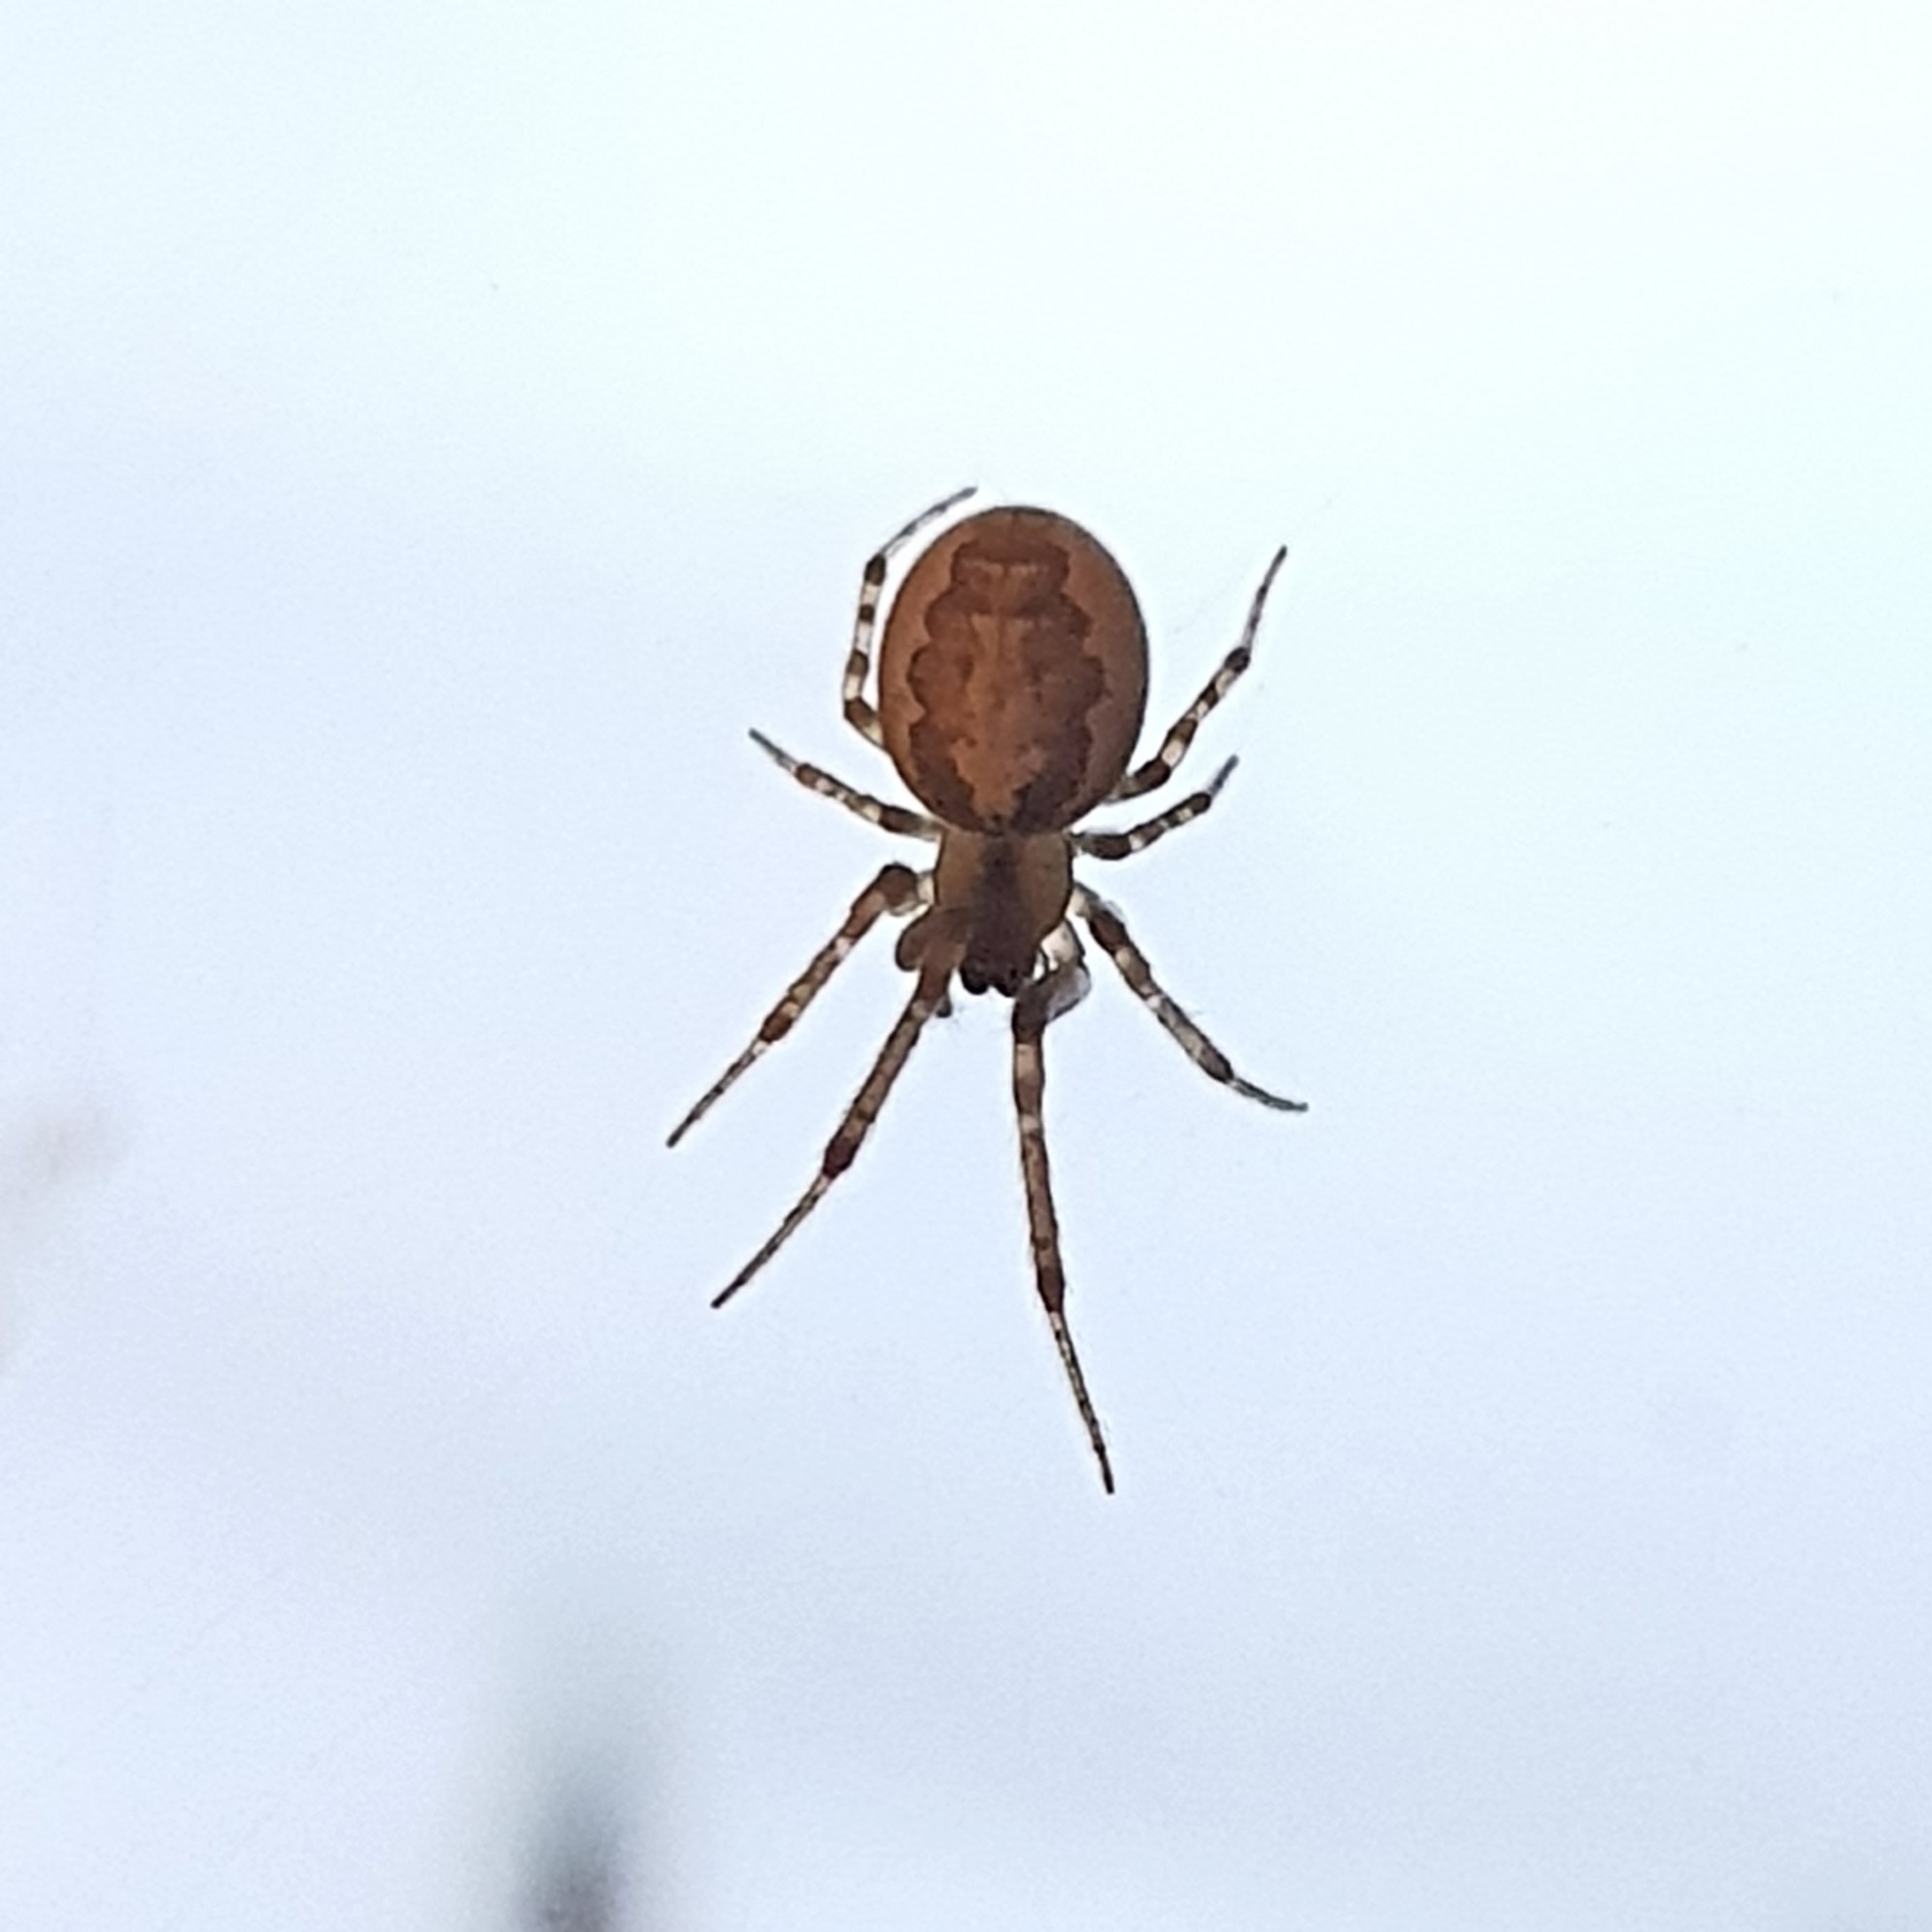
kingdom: Animalia
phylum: Arthropoda
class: Arachnida
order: Araneae
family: Araneidae
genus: Zygiella
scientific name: Zygiella x-notata
